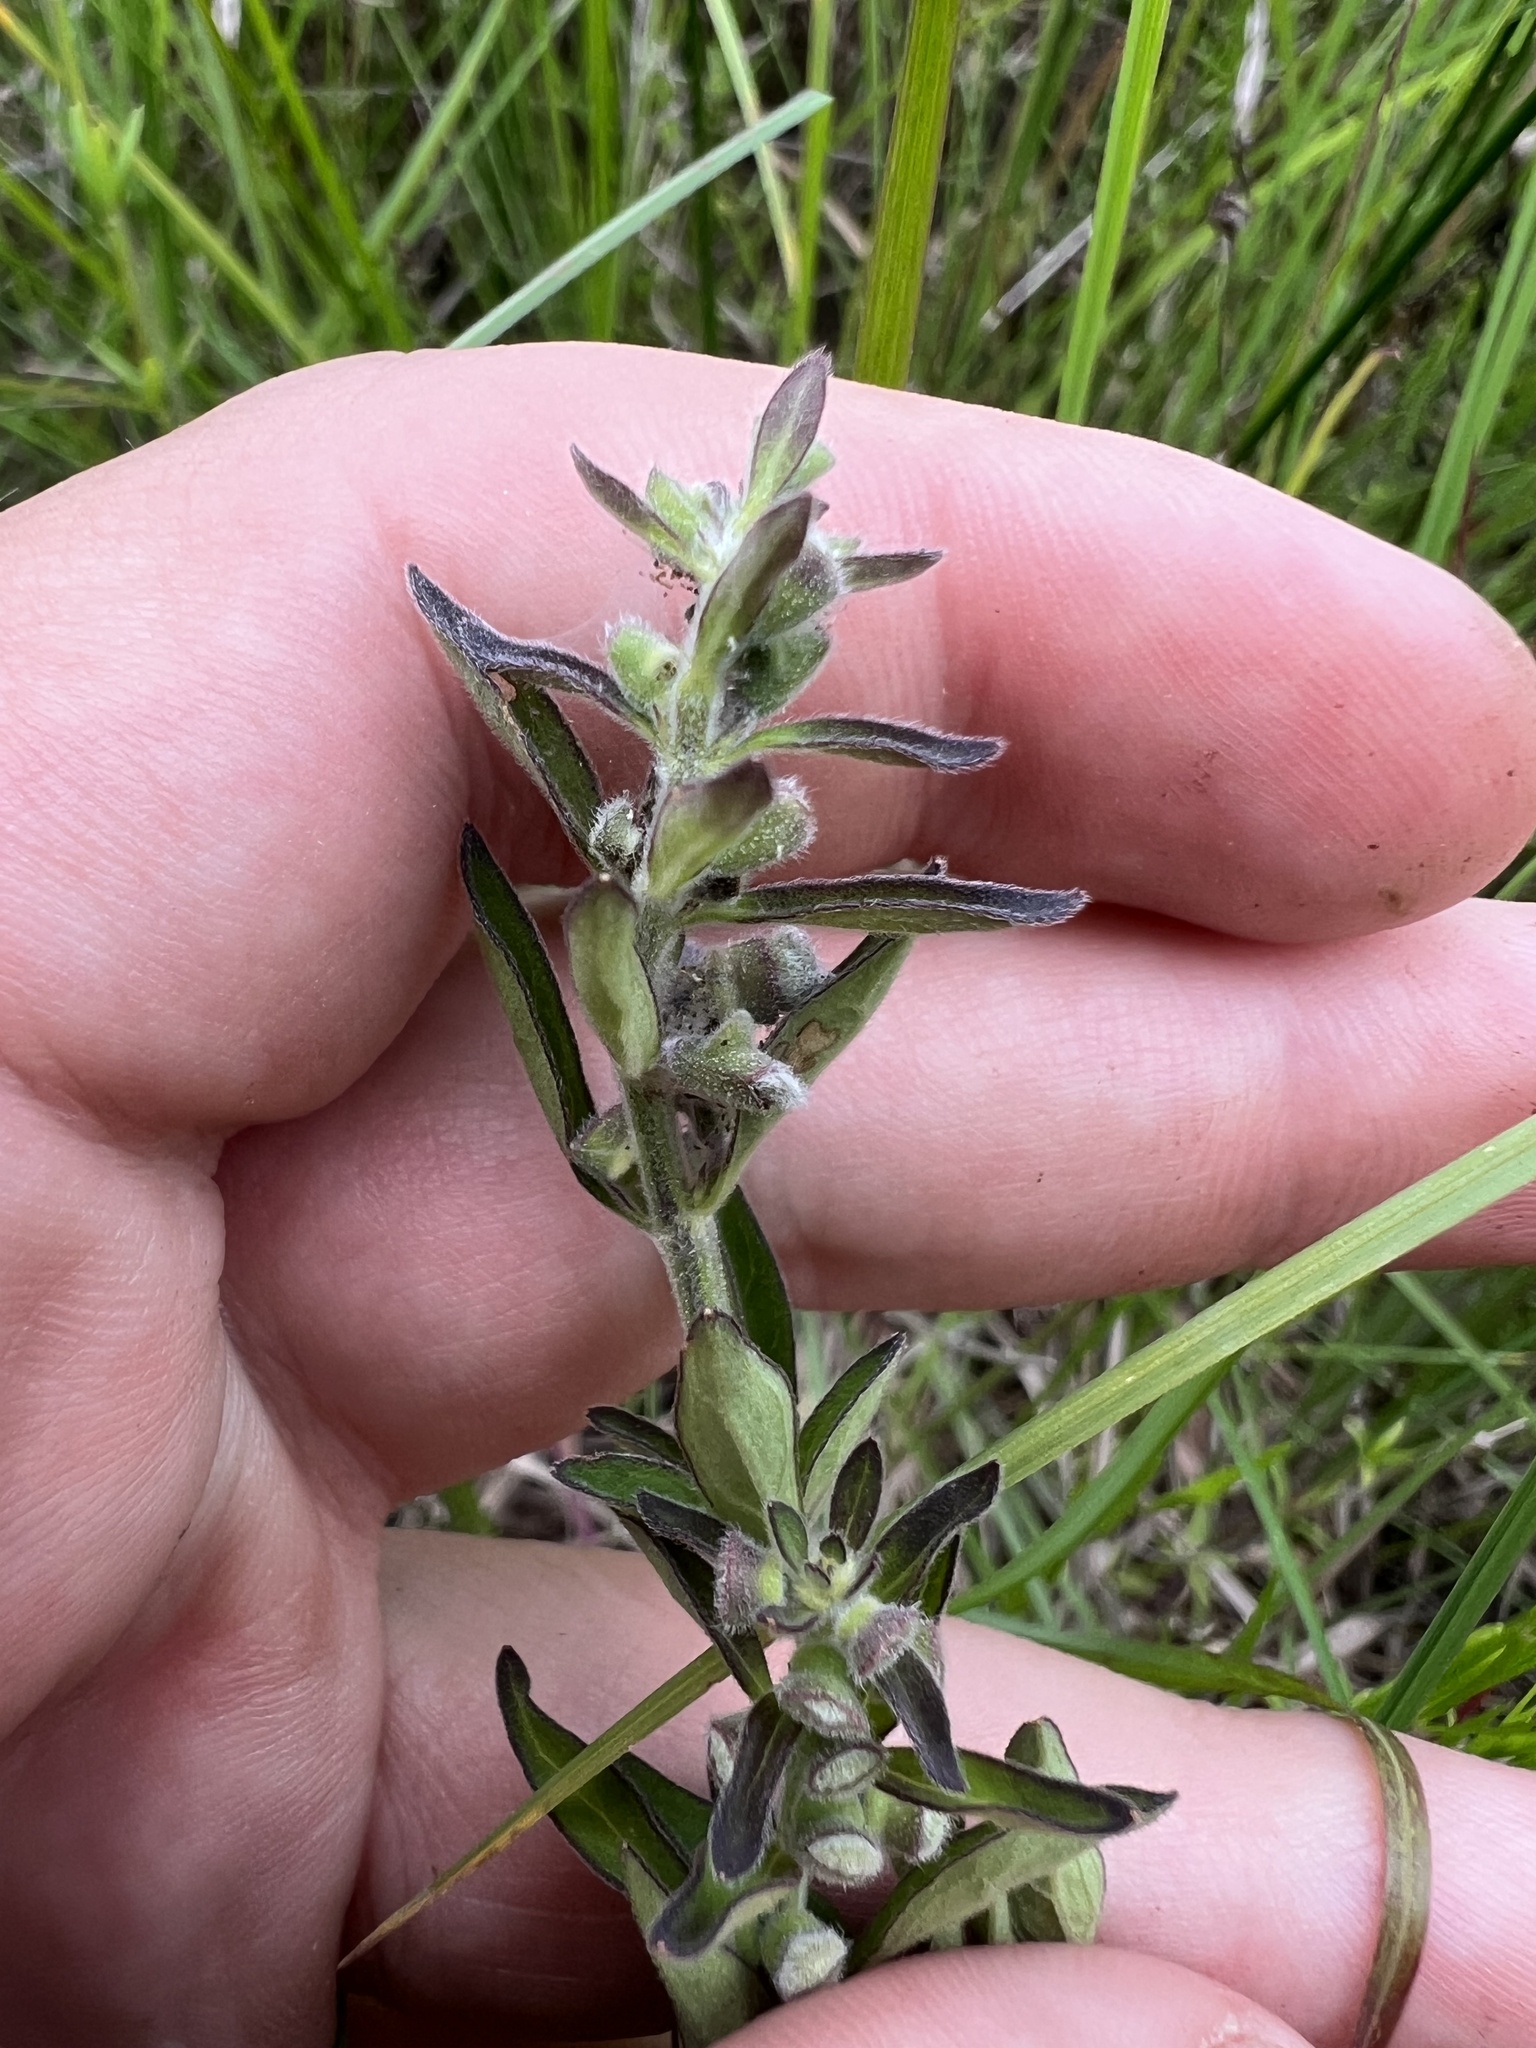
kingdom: Plantae
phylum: Tracheophyta
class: Magnoliopsida
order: Lamiales
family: Lamiaceae
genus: Scutellaria
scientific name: Scutellaria integrifolia
